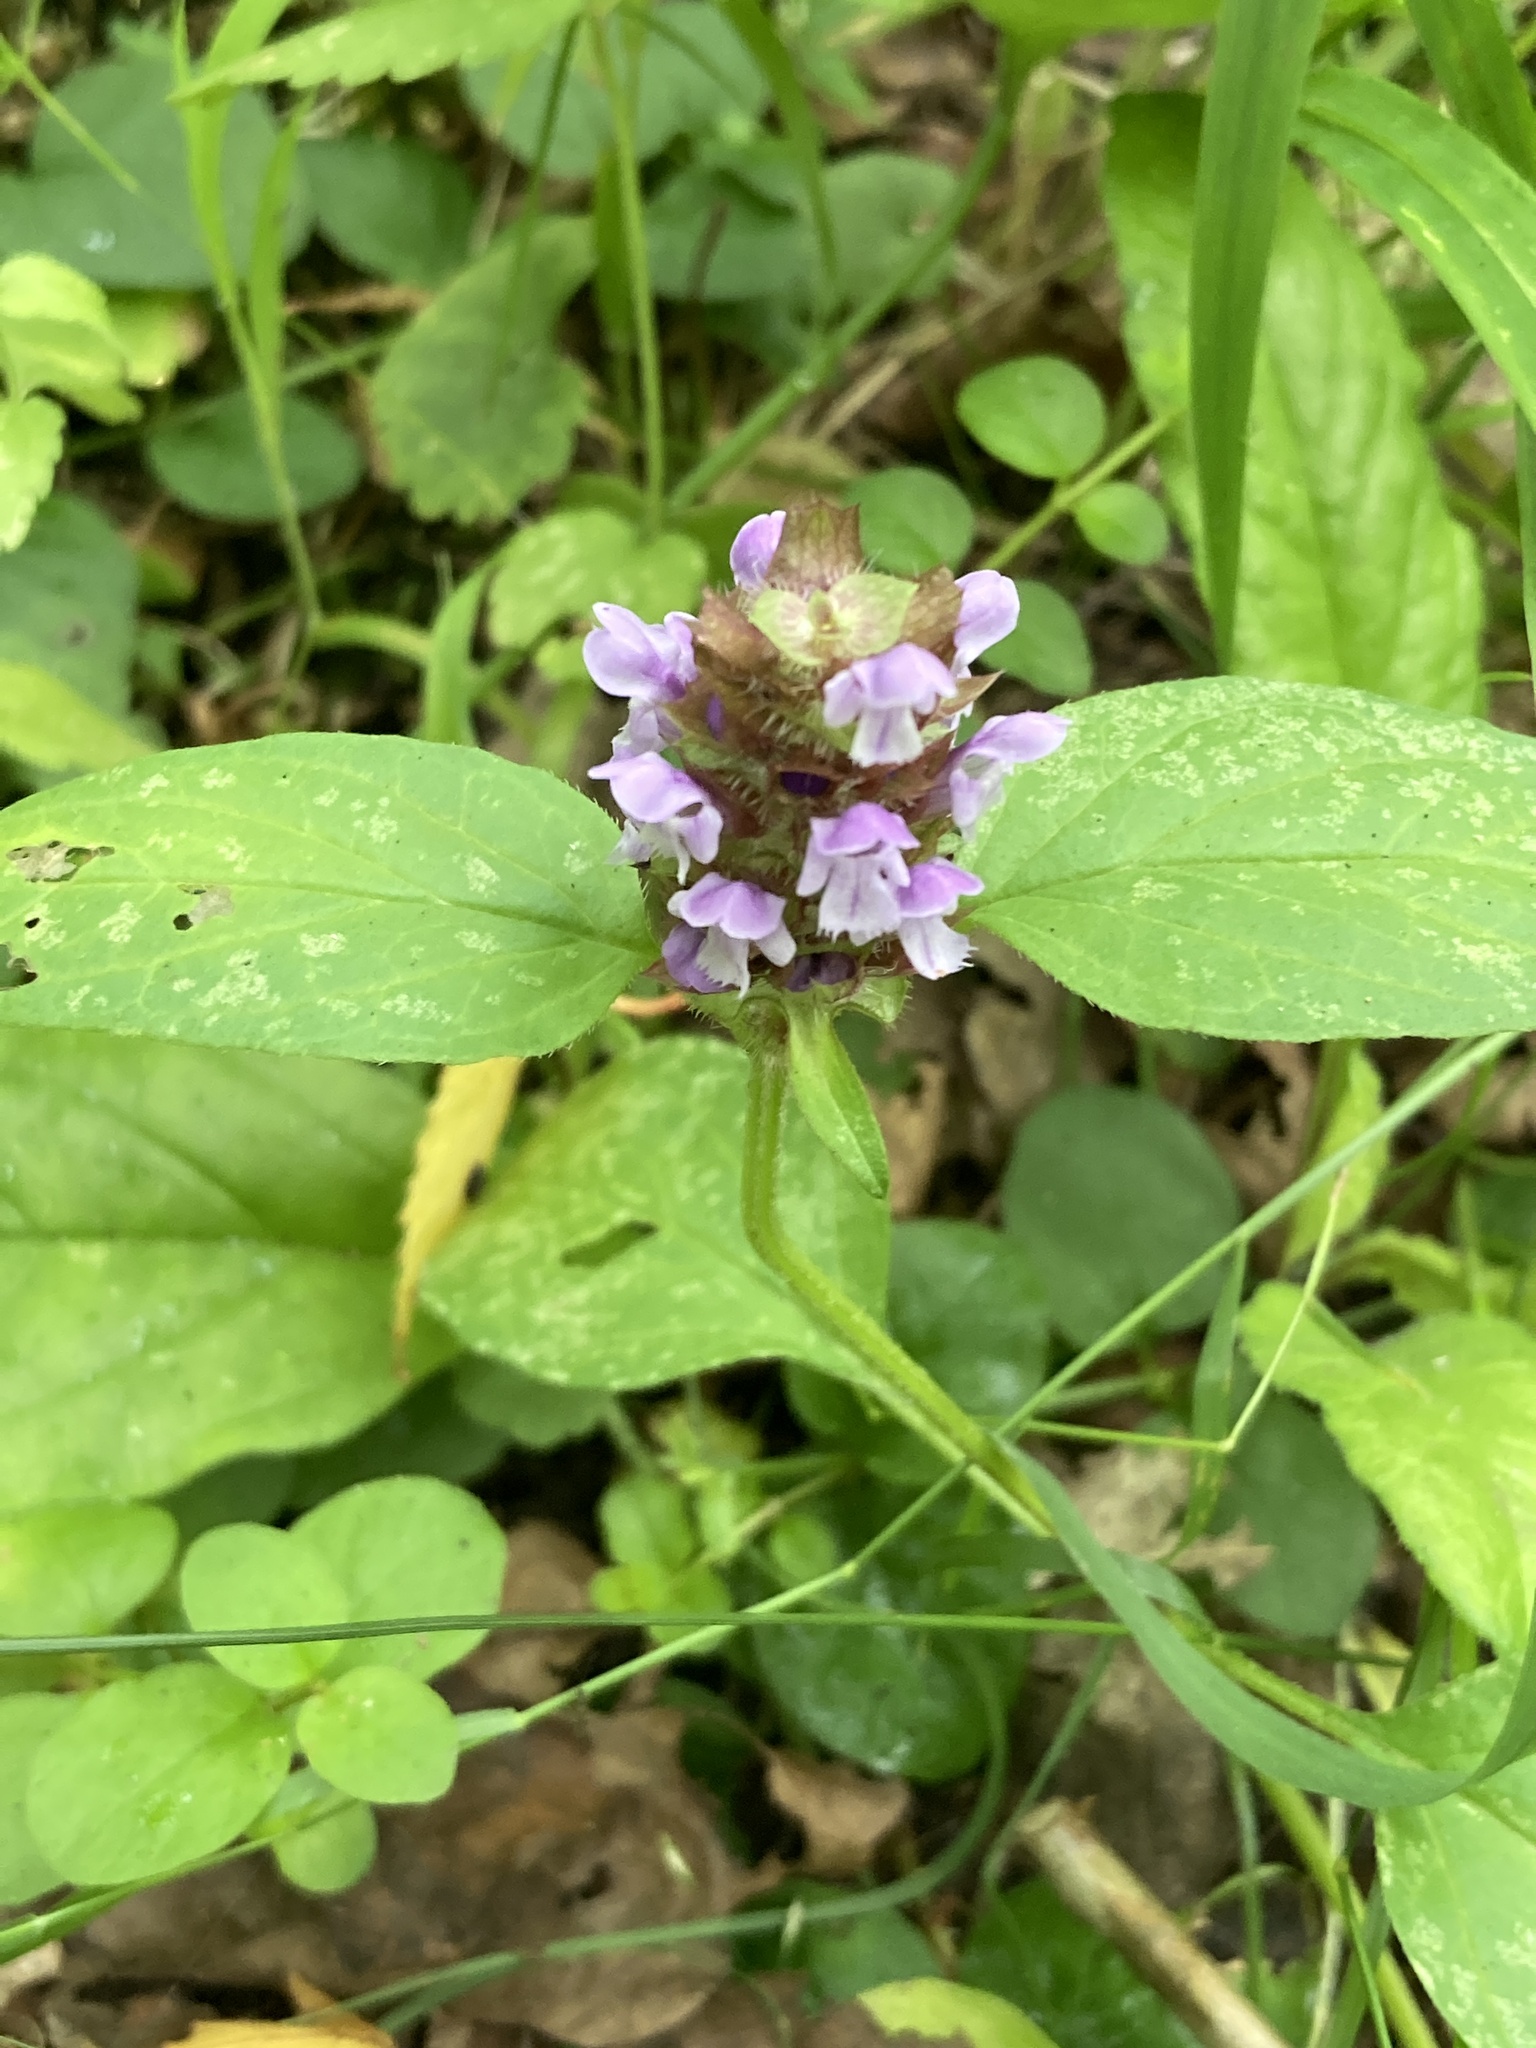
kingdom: Plantae
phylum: Tracheophyta
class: Magnoliopsida
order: Lamiales
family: Lamiaceae
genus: Prunella
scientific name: Prunella vulgaris
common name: Heal-all
